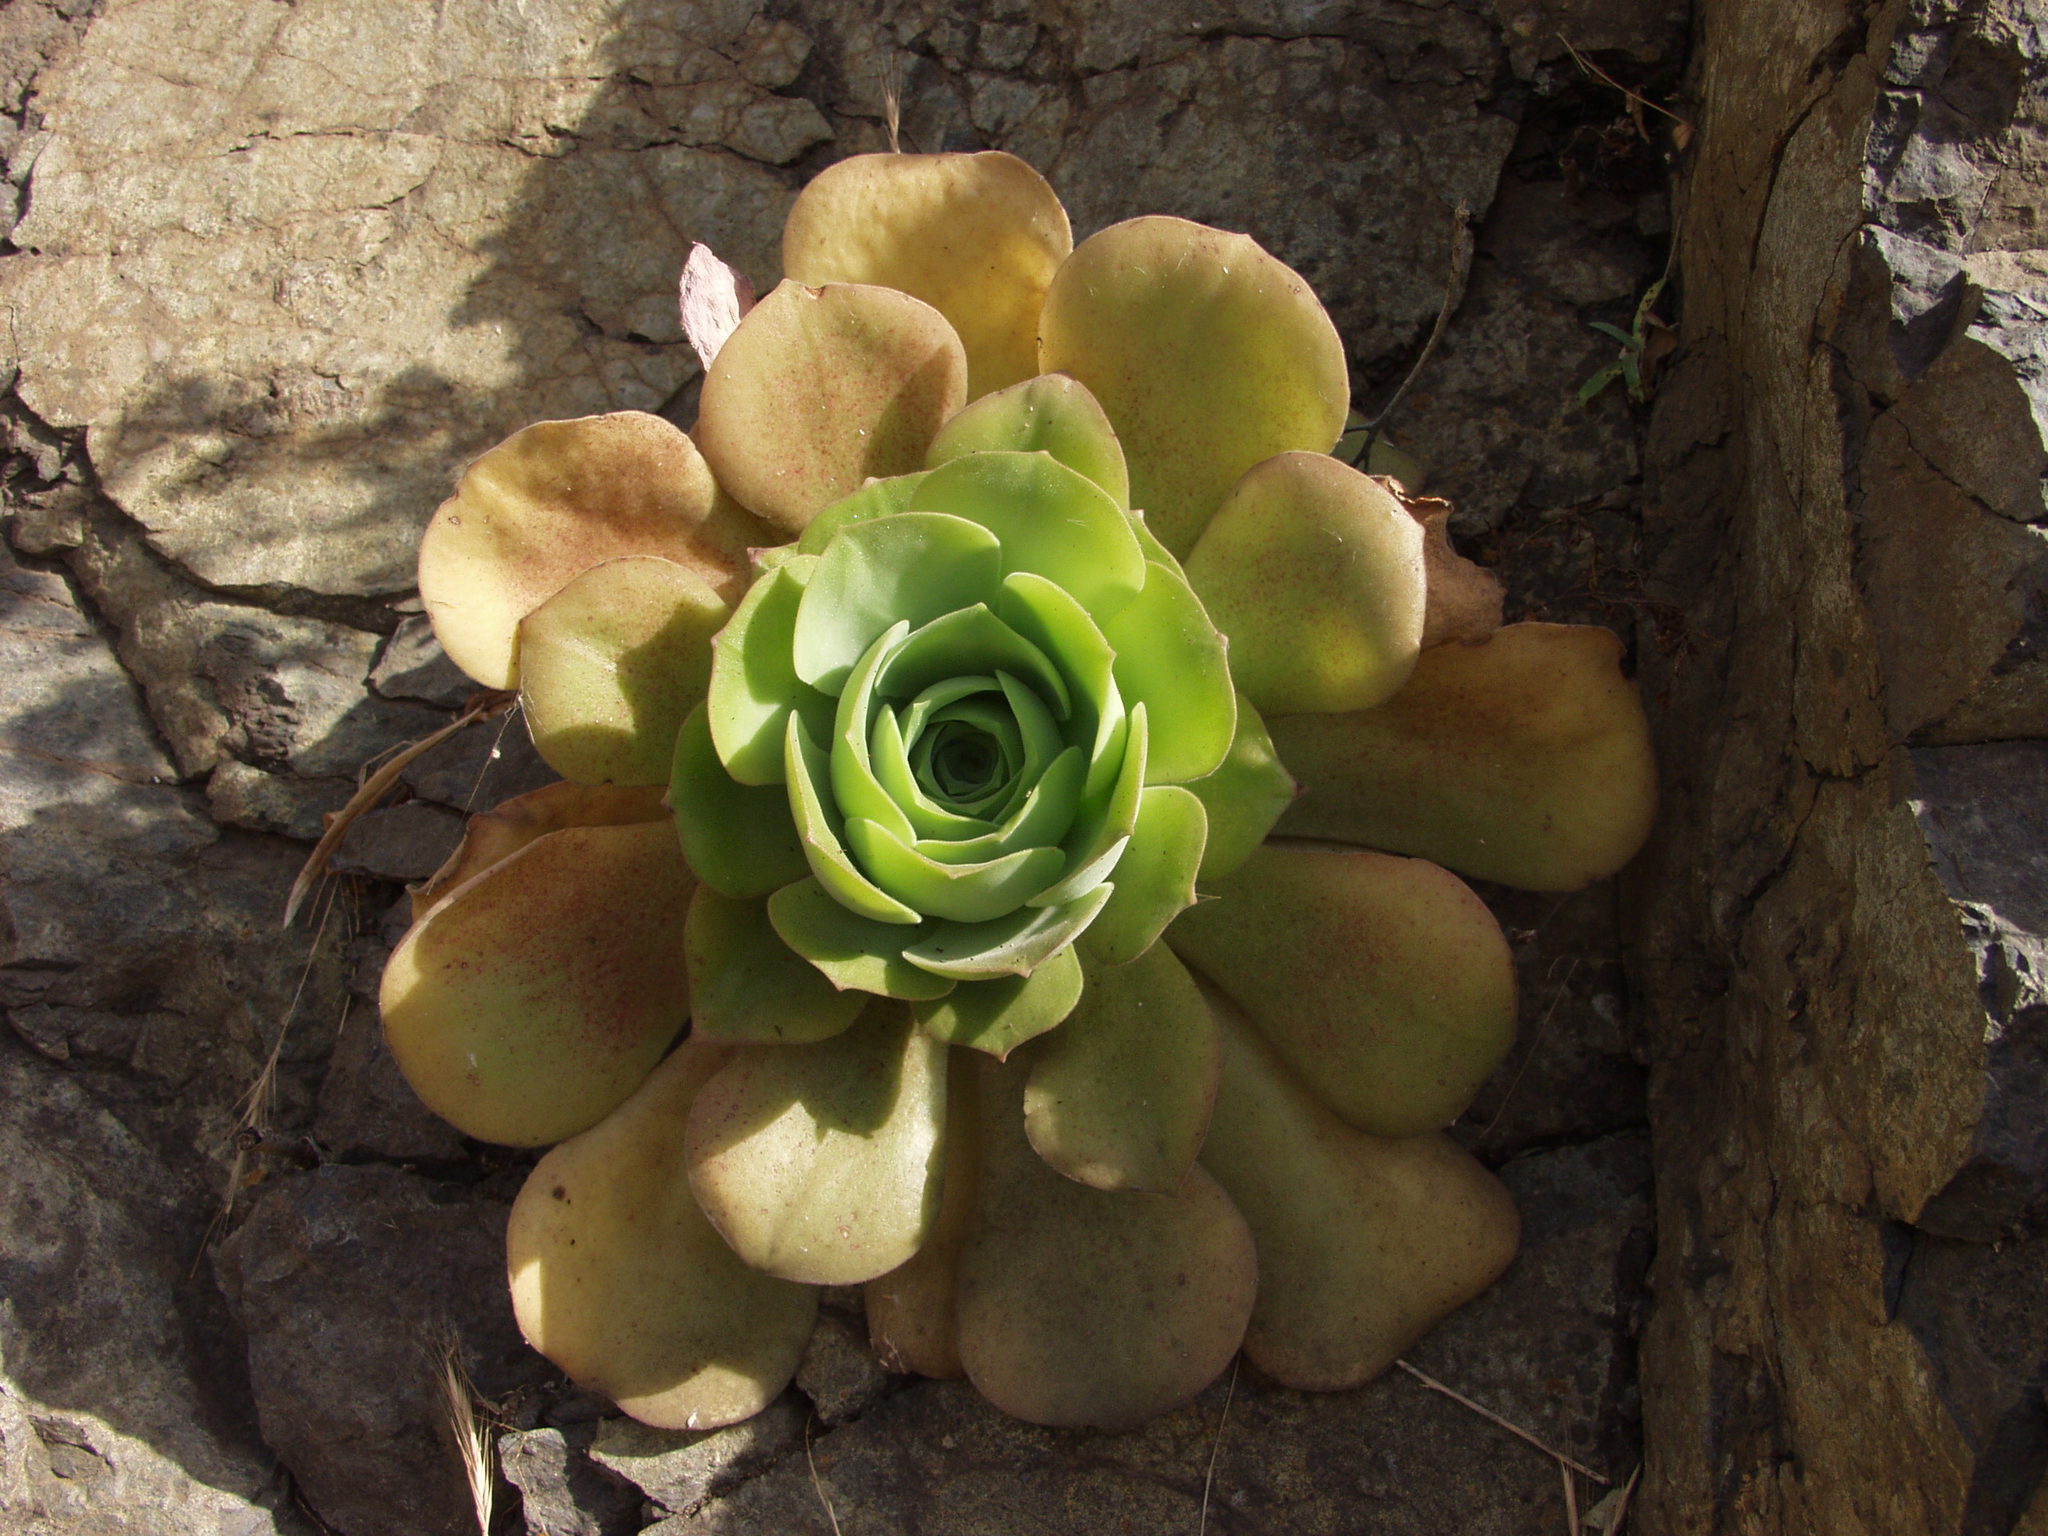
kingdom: Plantae
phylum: Tracheophyta
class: Magnoliopsida
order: Saxifragales
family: Crassulaceae
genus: Aeonium
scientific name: Aeonium canariense
